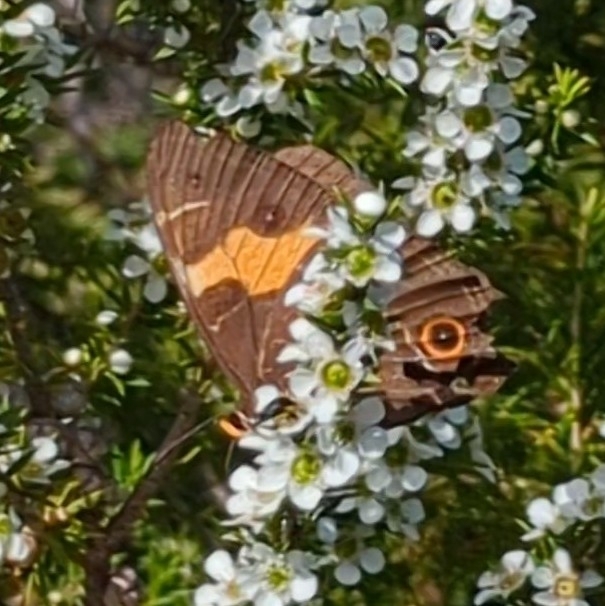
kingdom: Animalia
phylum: Arthropoda
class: Insecta
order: Lepidoptera
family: Nymphalidae
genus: Tisiphone
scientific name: Tisiphone abeona
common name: Swordgrass brown
